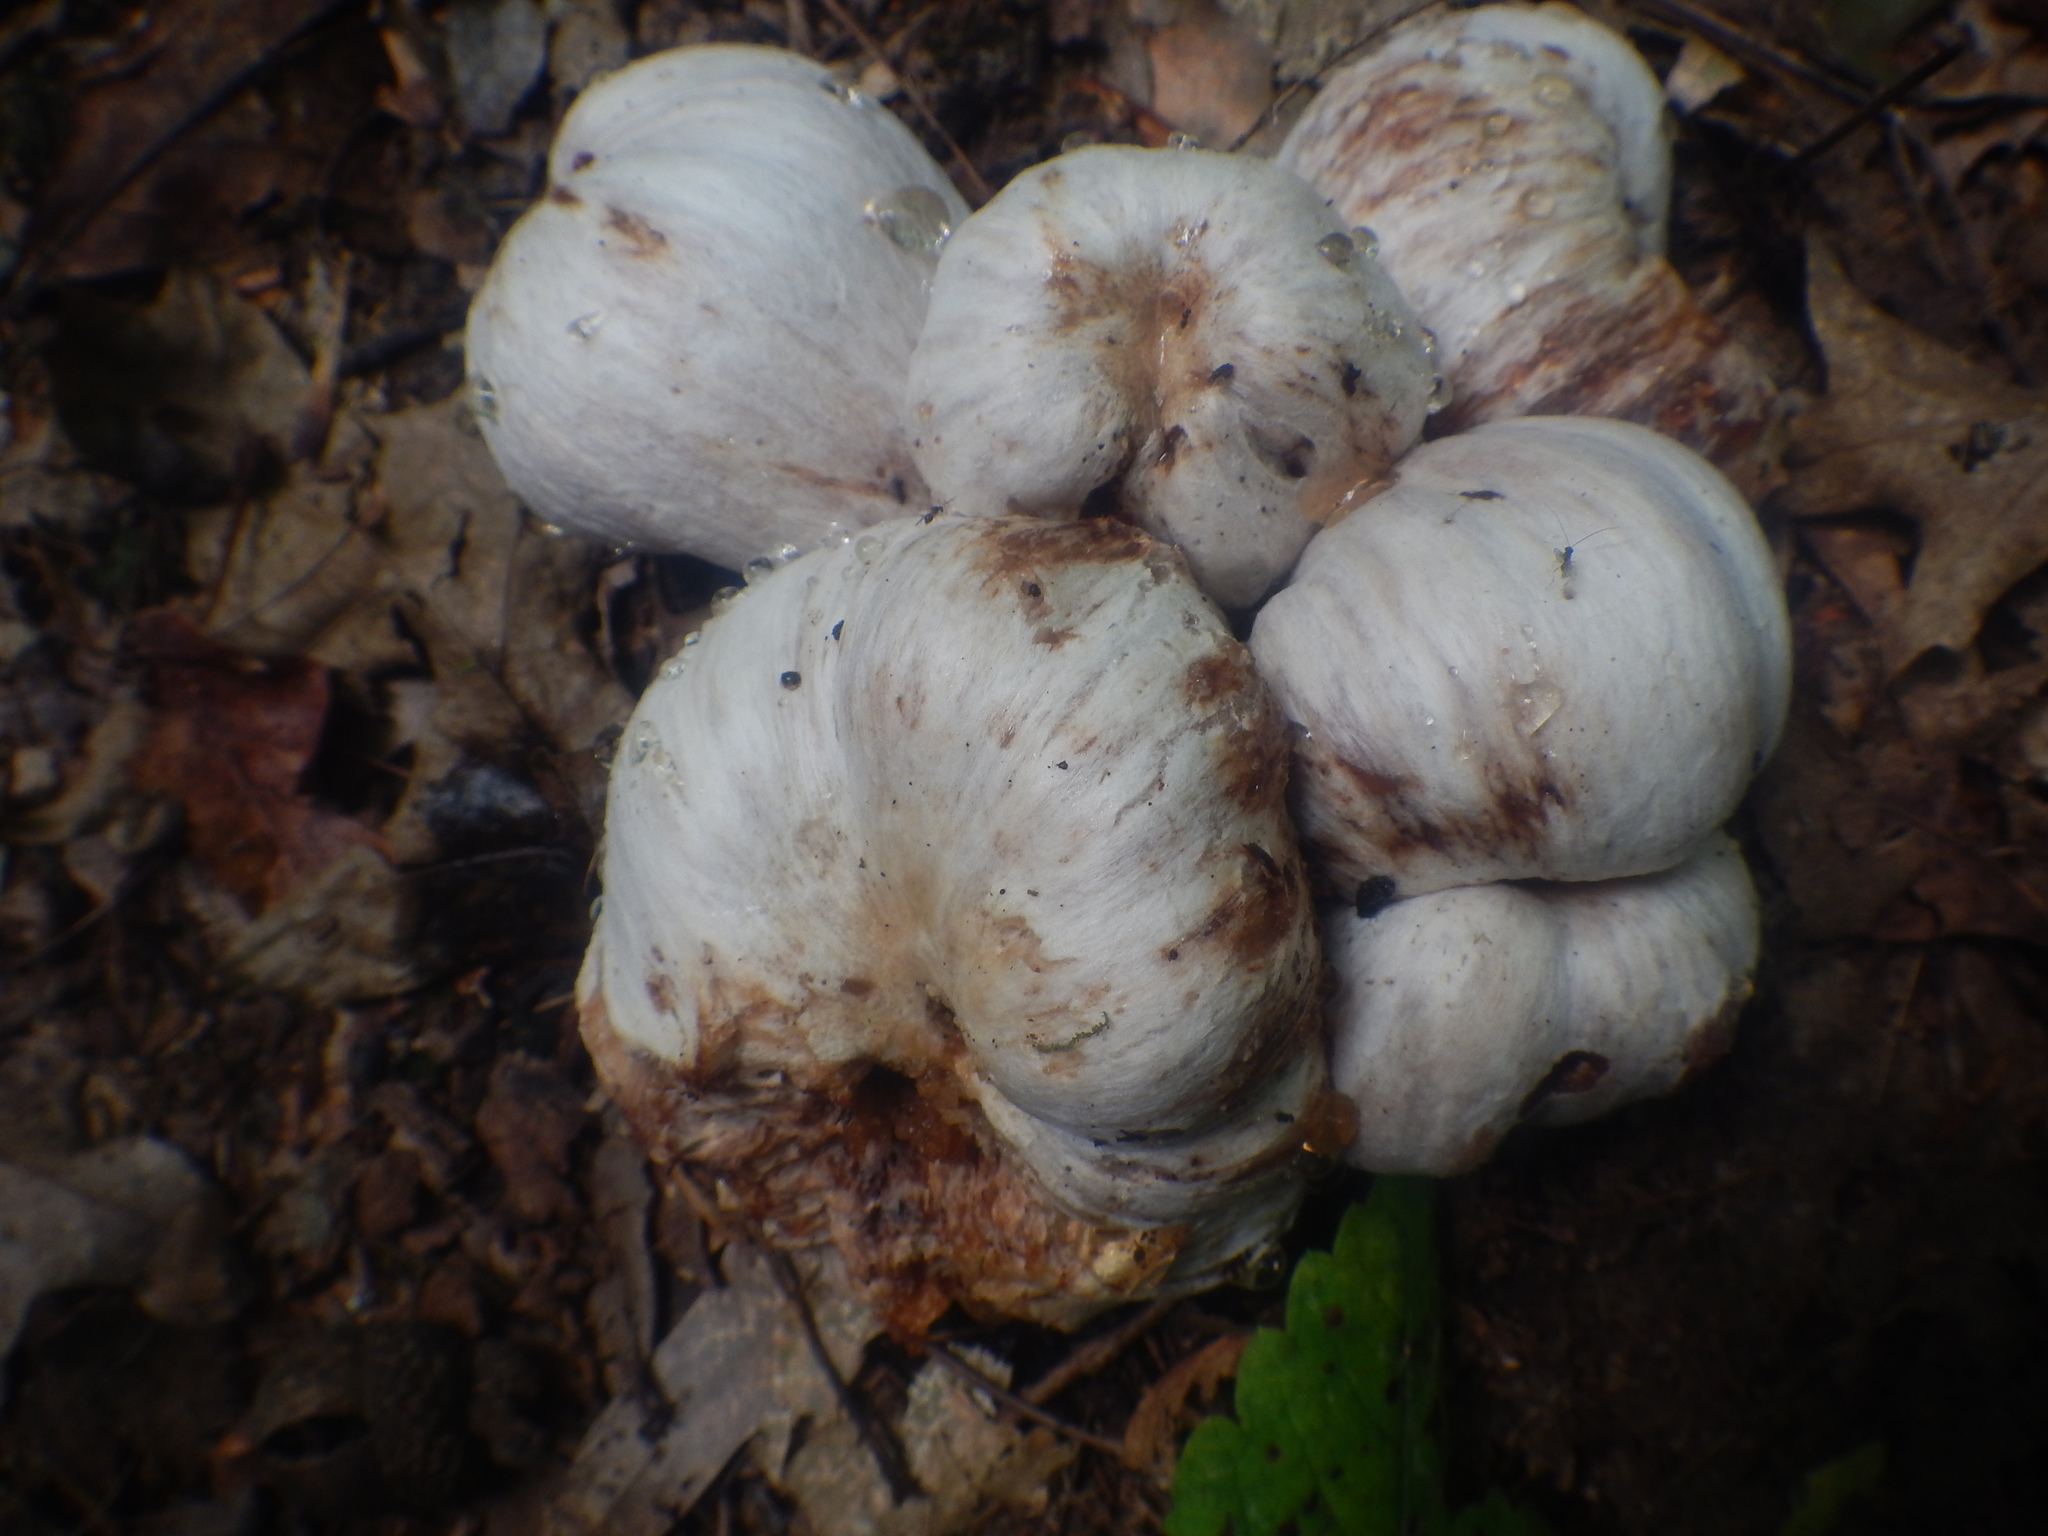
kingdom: Fungi
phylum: Basidiomycota
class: Agaricomycetes
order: Agaricales
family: Entolomataceae
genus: Entoloma
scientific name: Entoloma abortivum
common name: Aborted entoloma
